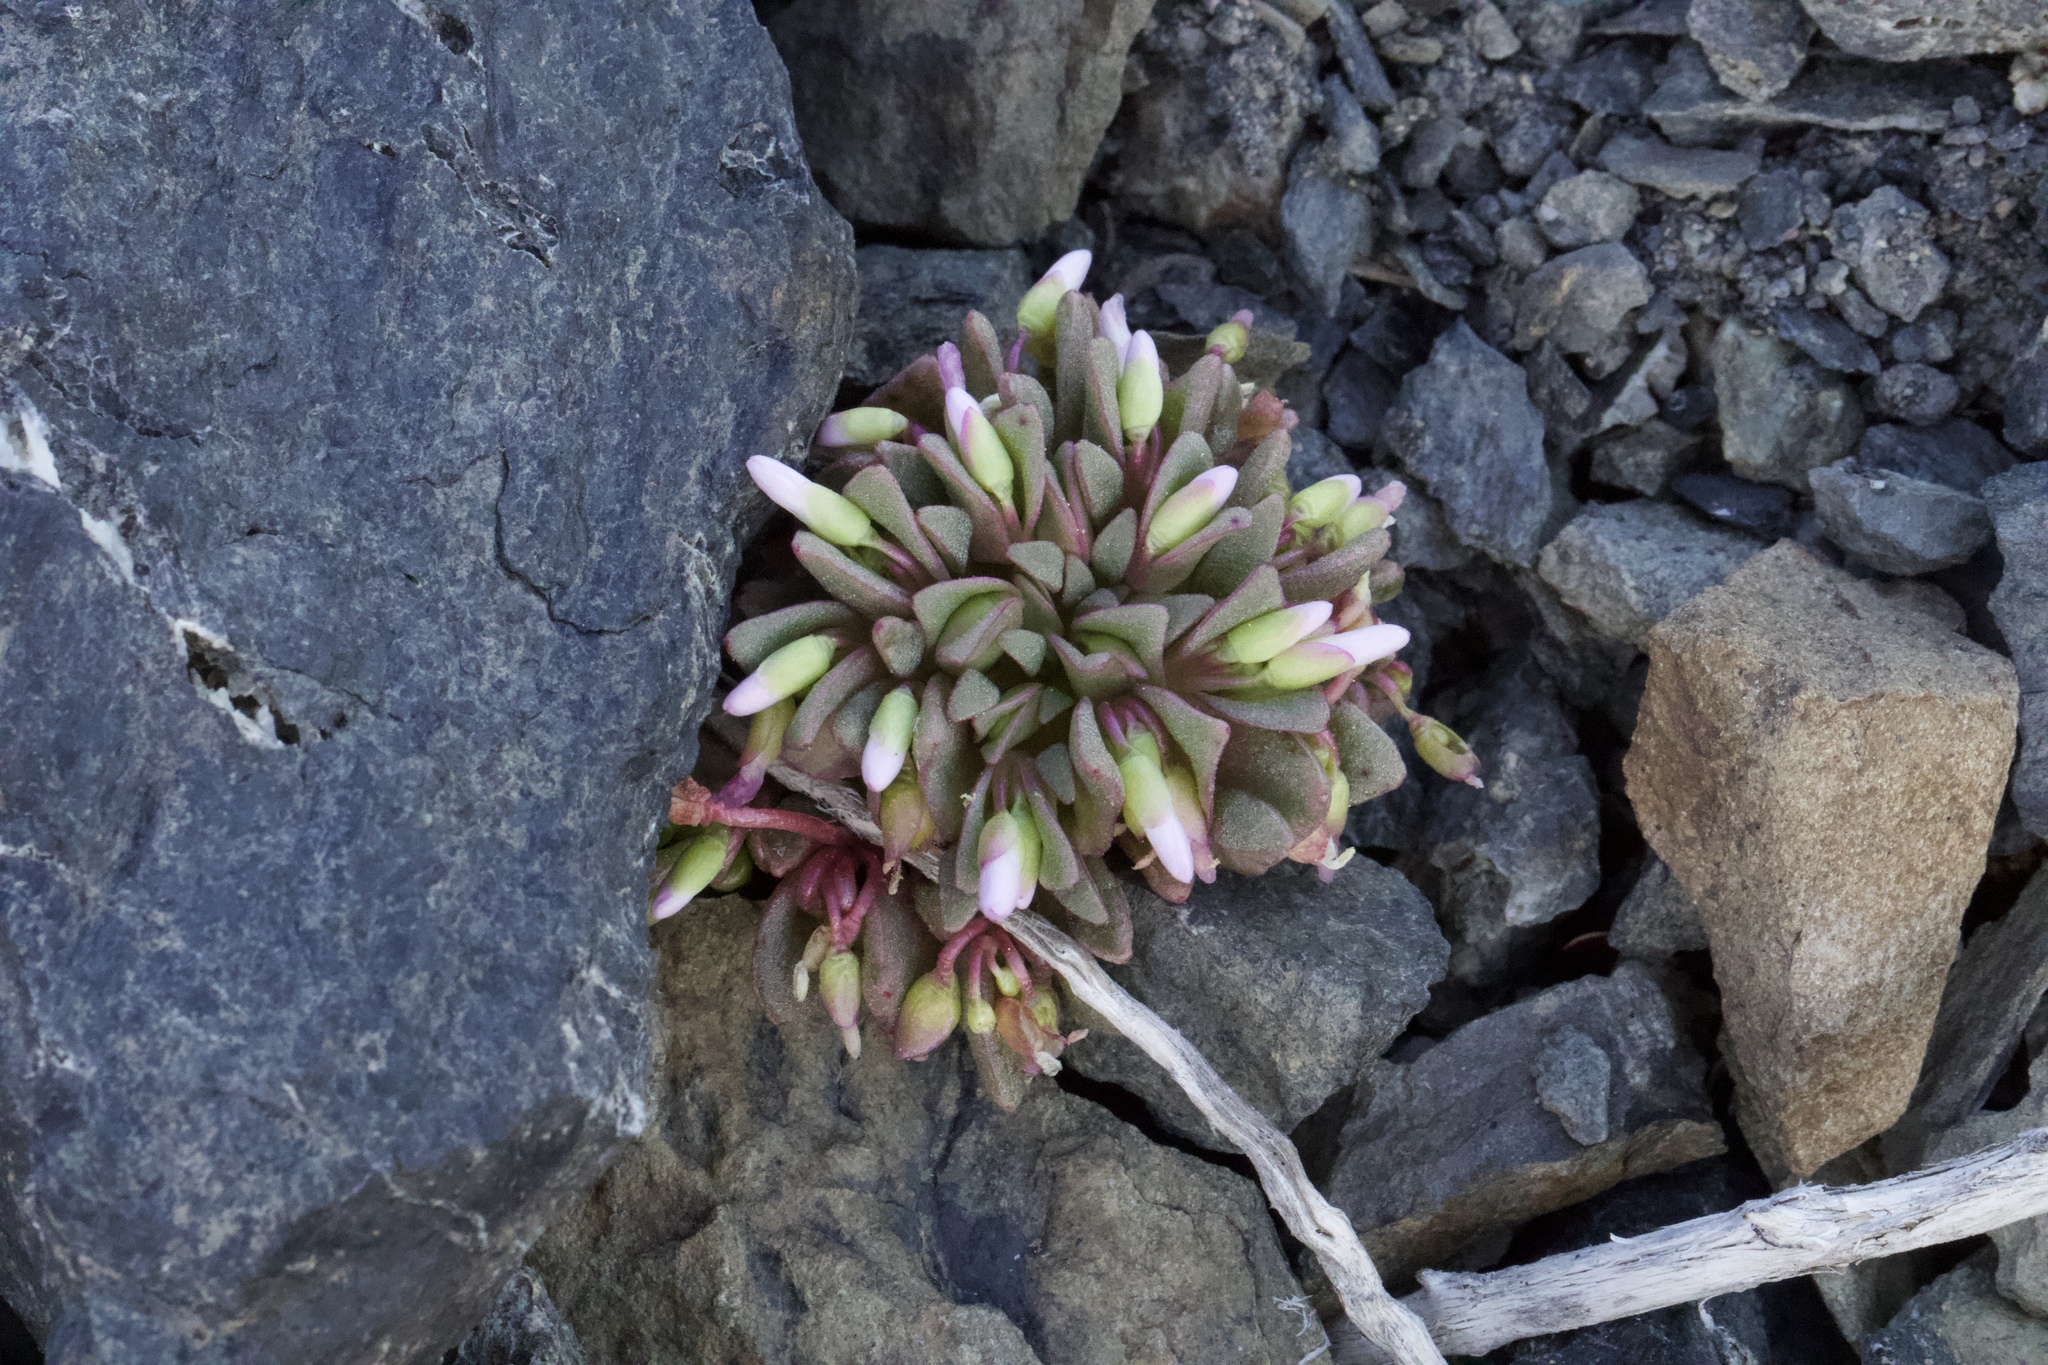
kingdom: Plantae
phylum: Tracheophyta
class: Magnoliopsida
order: Caryophyllales
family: Montiaceae
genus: Claytonia
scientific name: Claytonia saxosa
